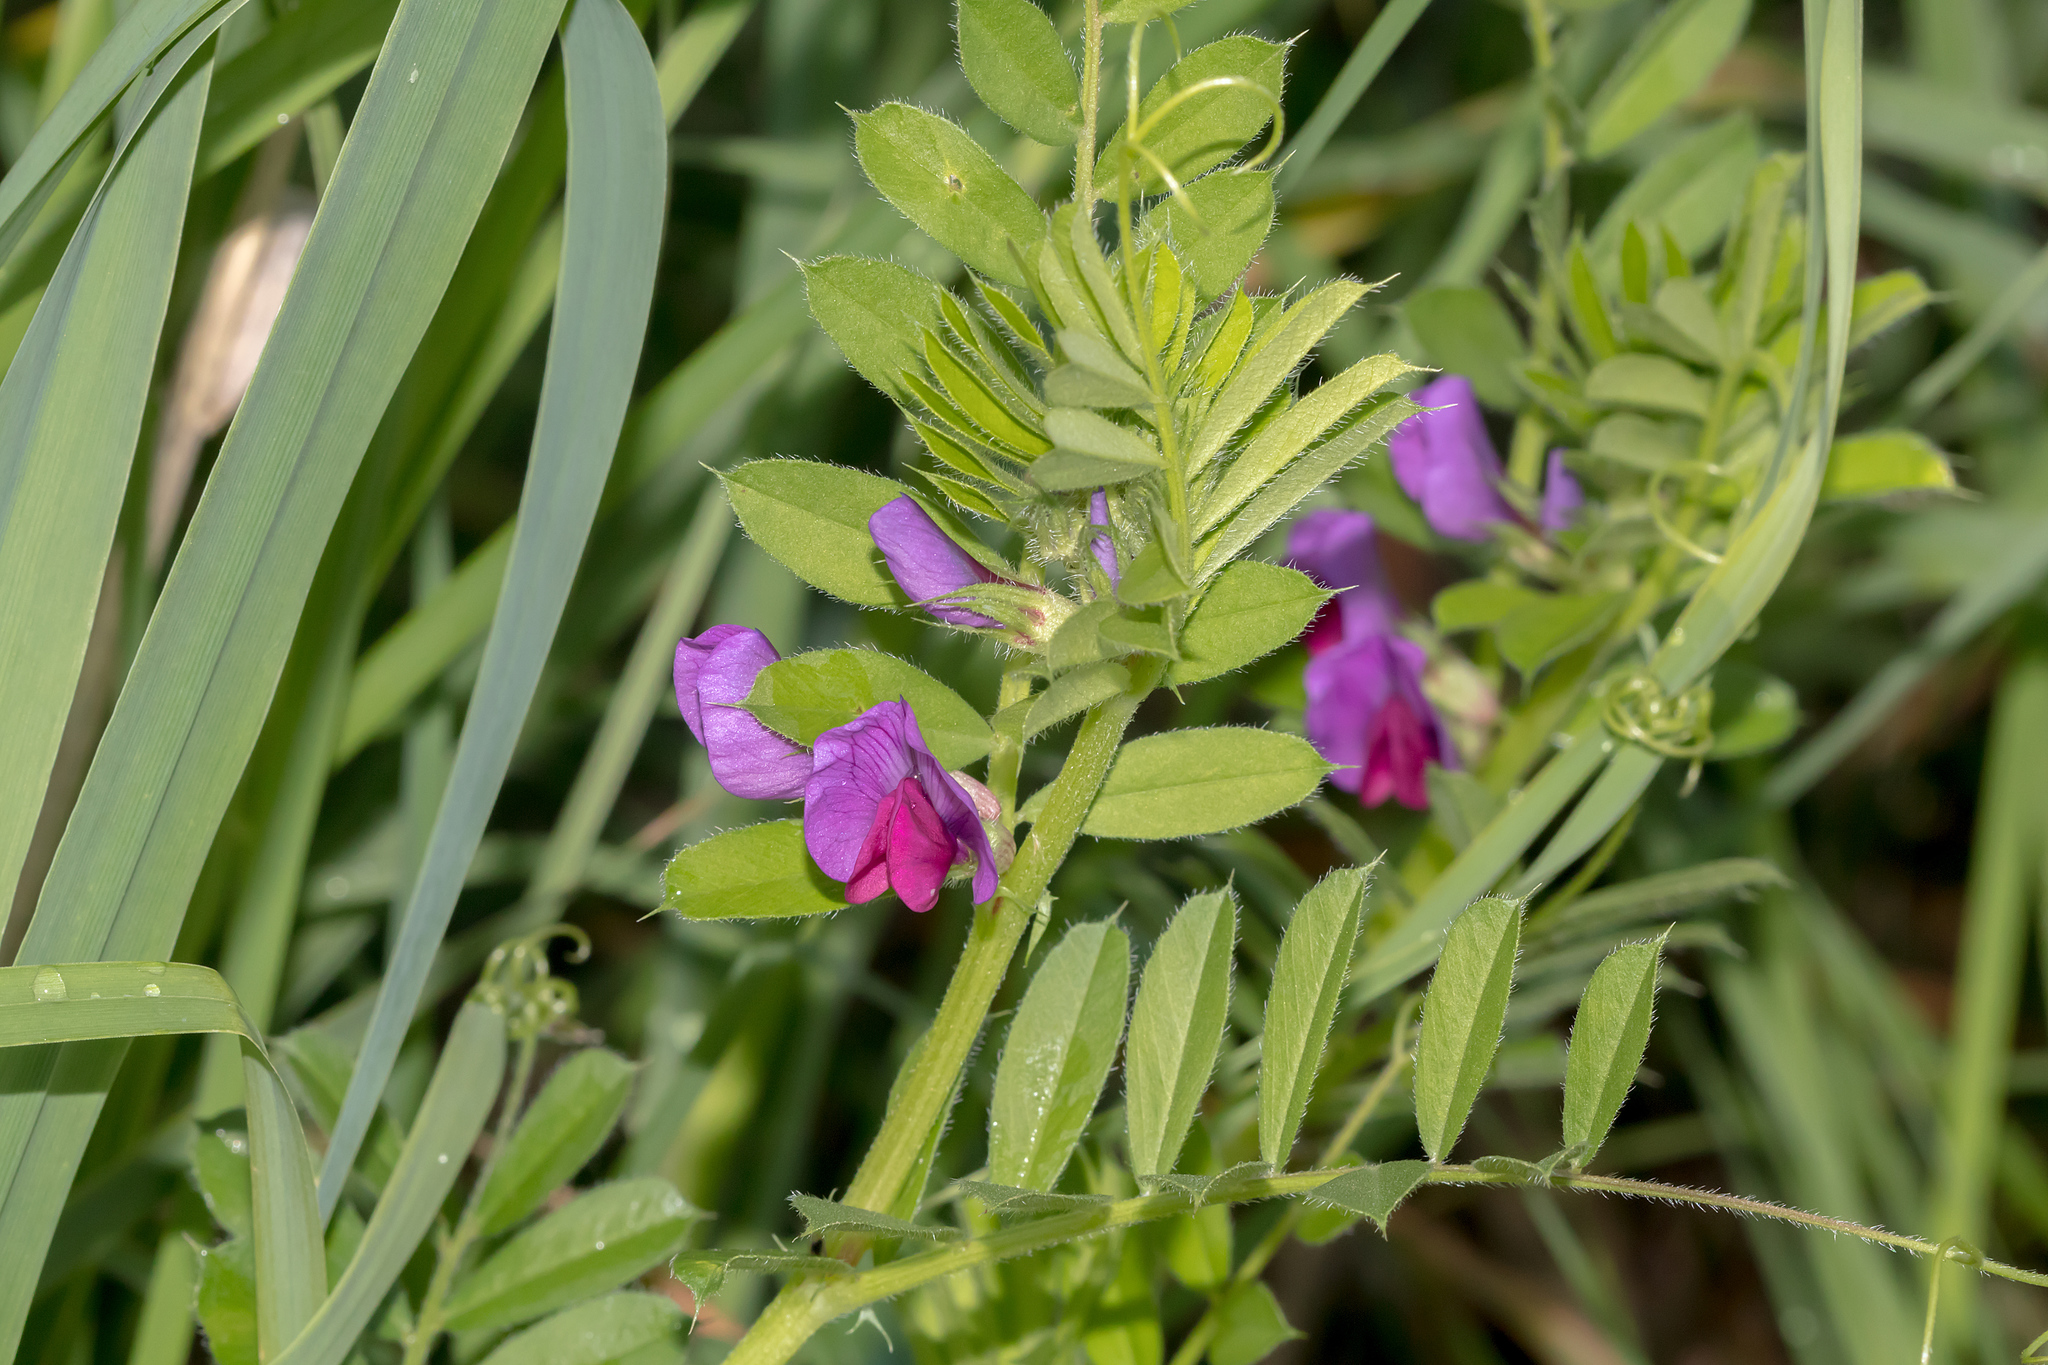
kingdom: Plantae
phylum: Tracheophyta
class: Magnoliopsida
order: Fabales
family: Fabaceae
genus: Vicia
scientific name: Vicia sativa
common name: Garden vetch
